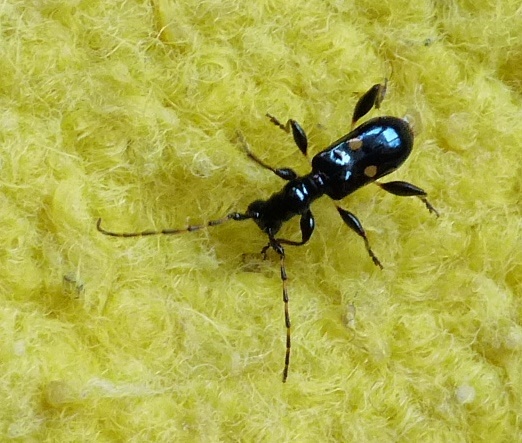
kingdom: Animalia
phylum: Arthropoda
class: Insecta
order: Coleoptera
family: Cerambycidae
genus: Zorion
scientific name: Zorion batesi
